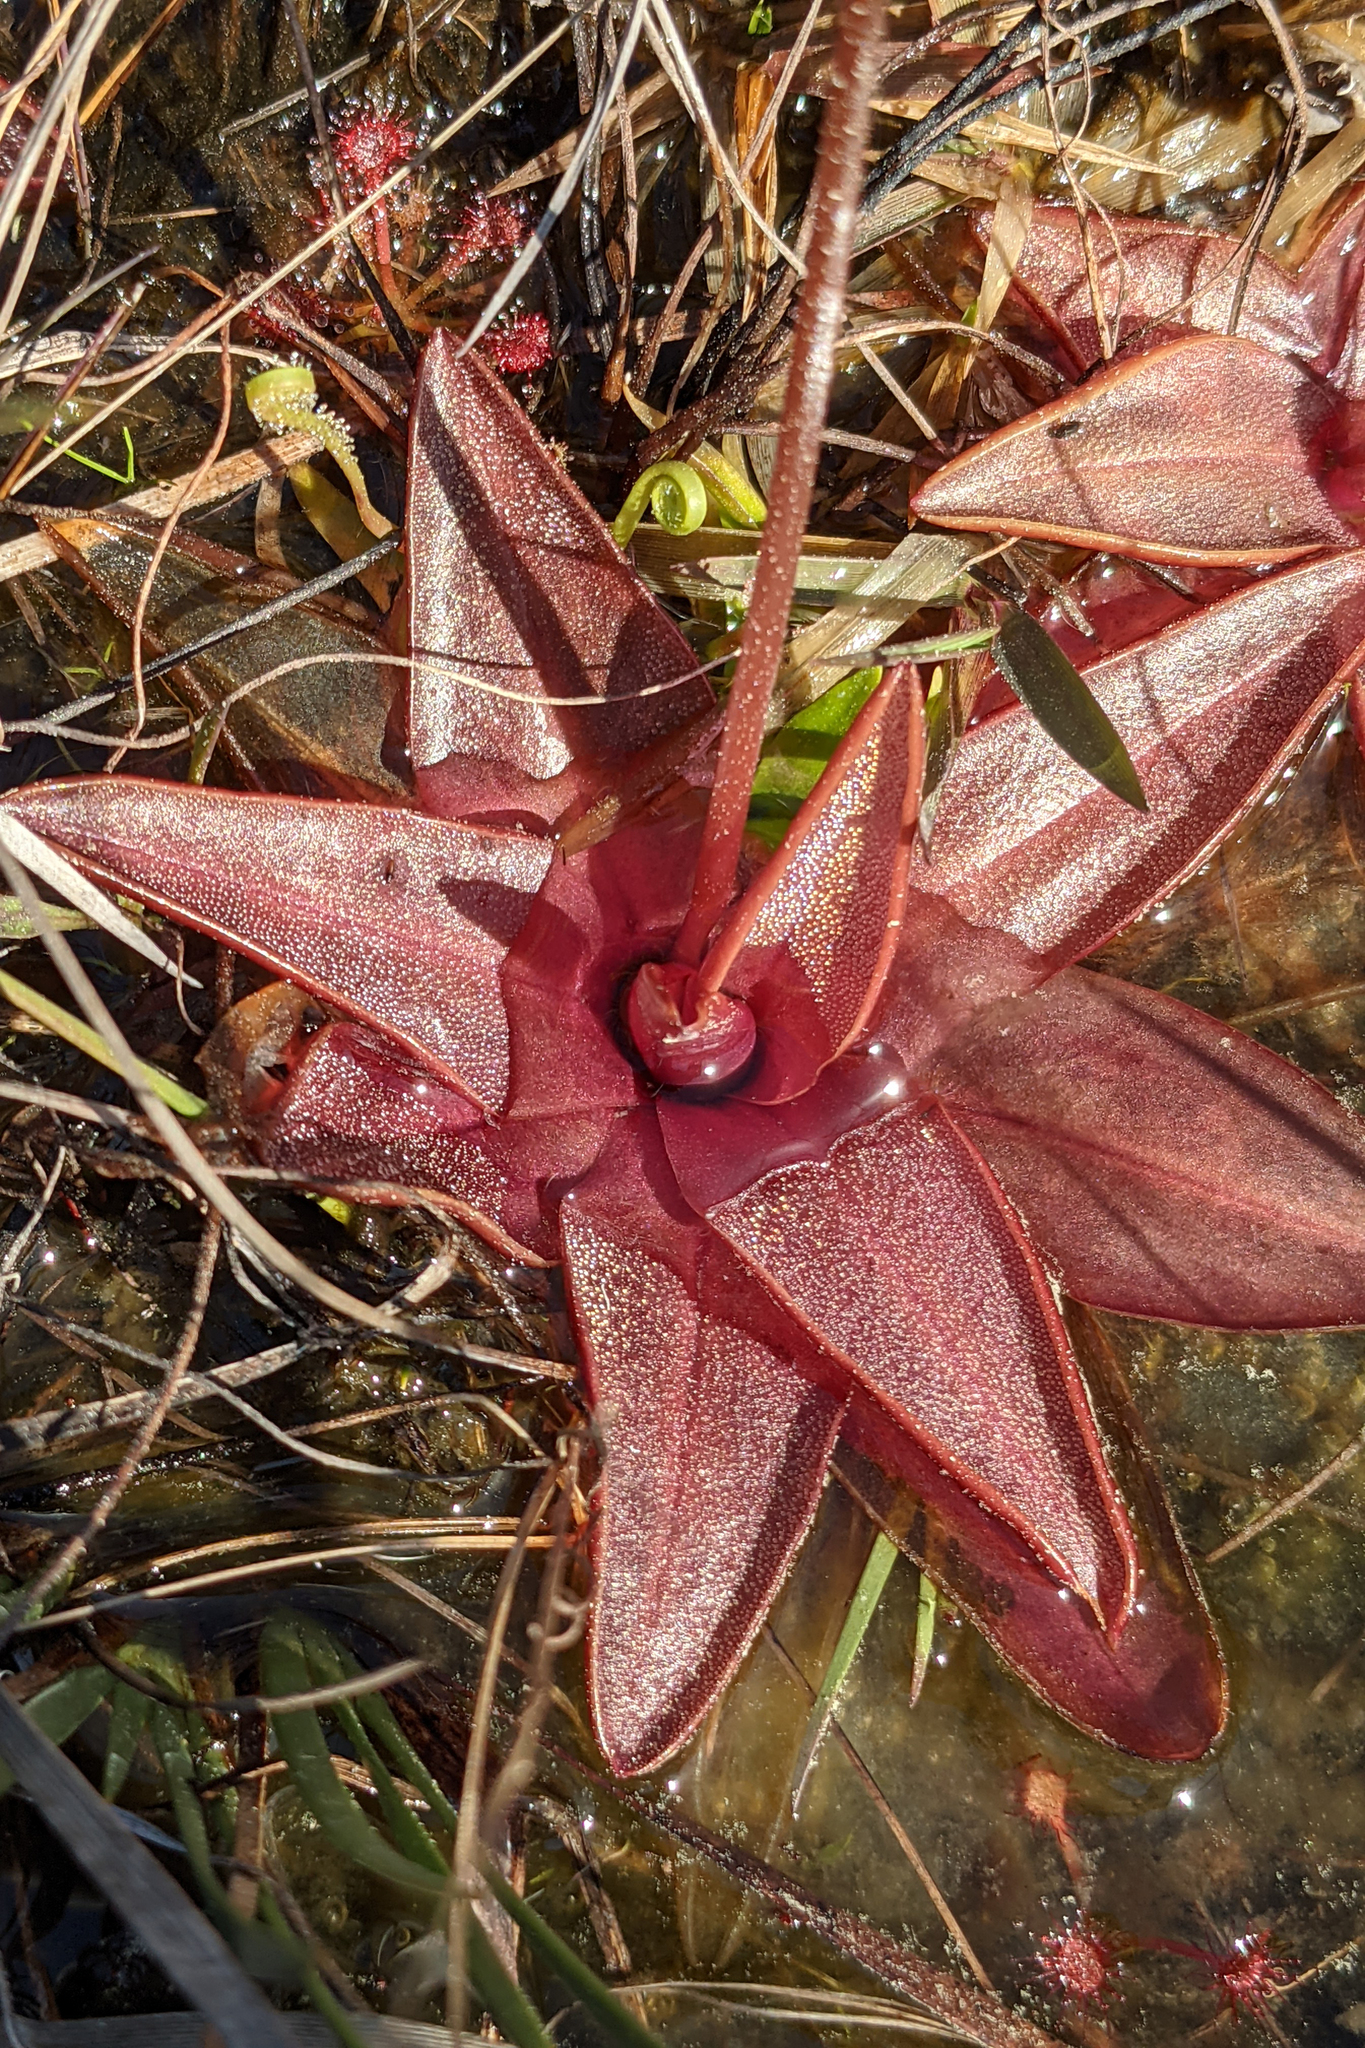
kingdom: Plantae
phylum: Tracheophyta
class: Magnoliopsida
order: Lamiales
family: Lentibulariaceae
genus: Pinguicula
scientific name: Pinguicula planifolia
